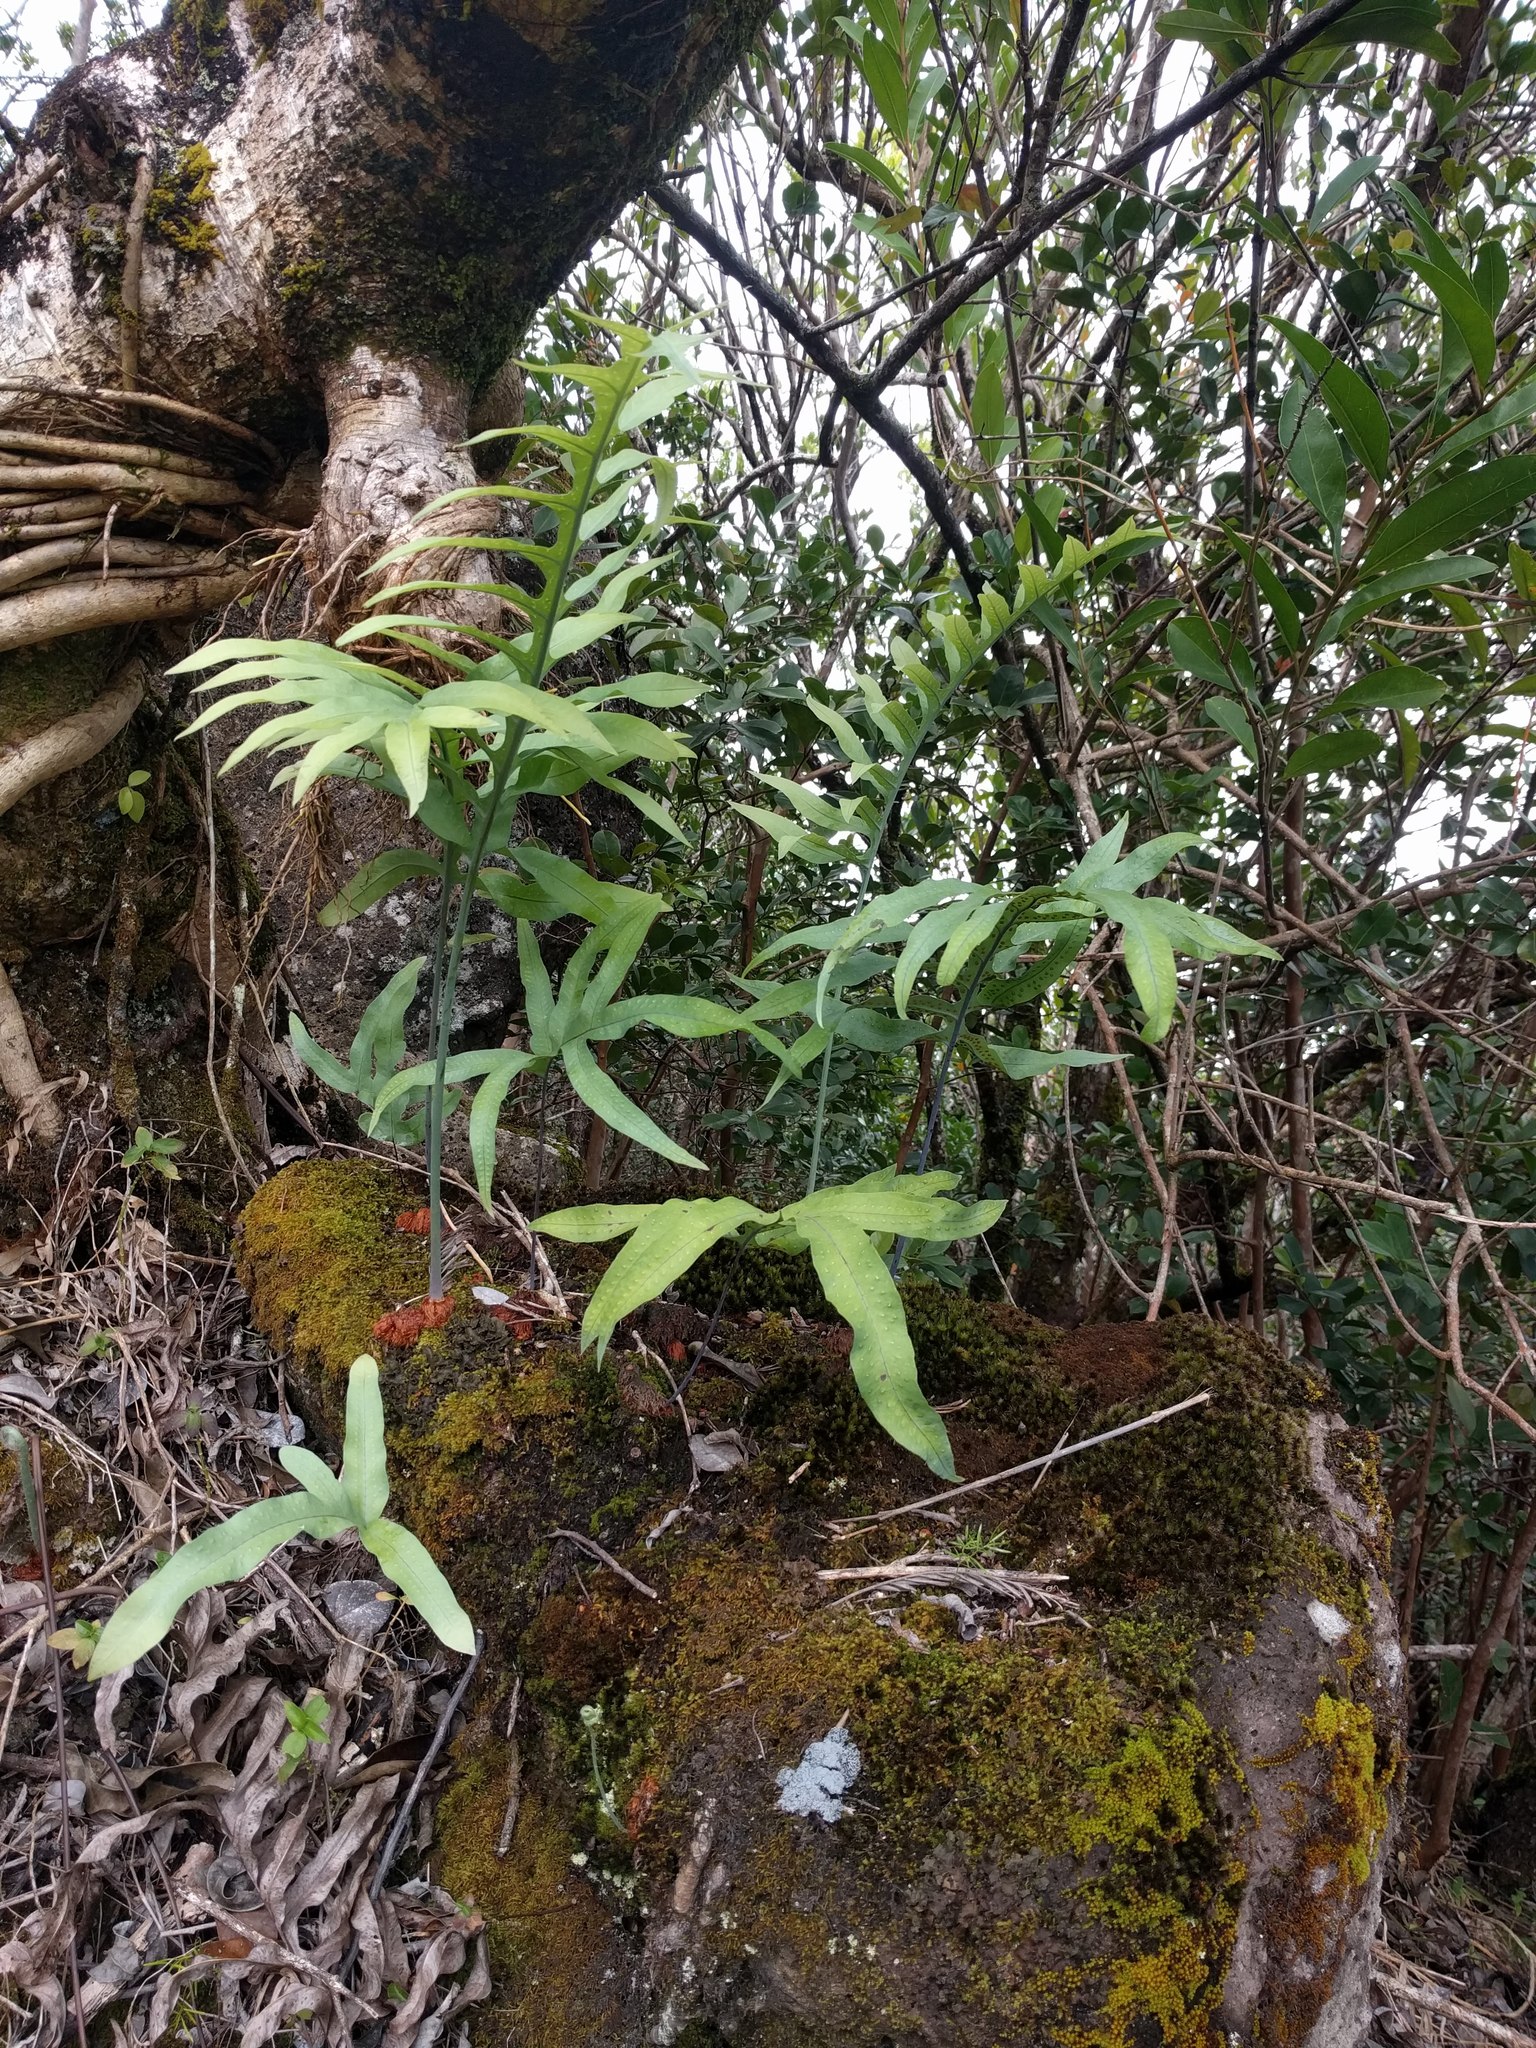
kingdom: Plantae
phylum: Tracheophyta
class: Polypodiopsida
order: Polypodiales
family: Polypodiaceae
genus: Phlebodium
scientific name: Phlebodium aureum
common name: Gold-foot fern
